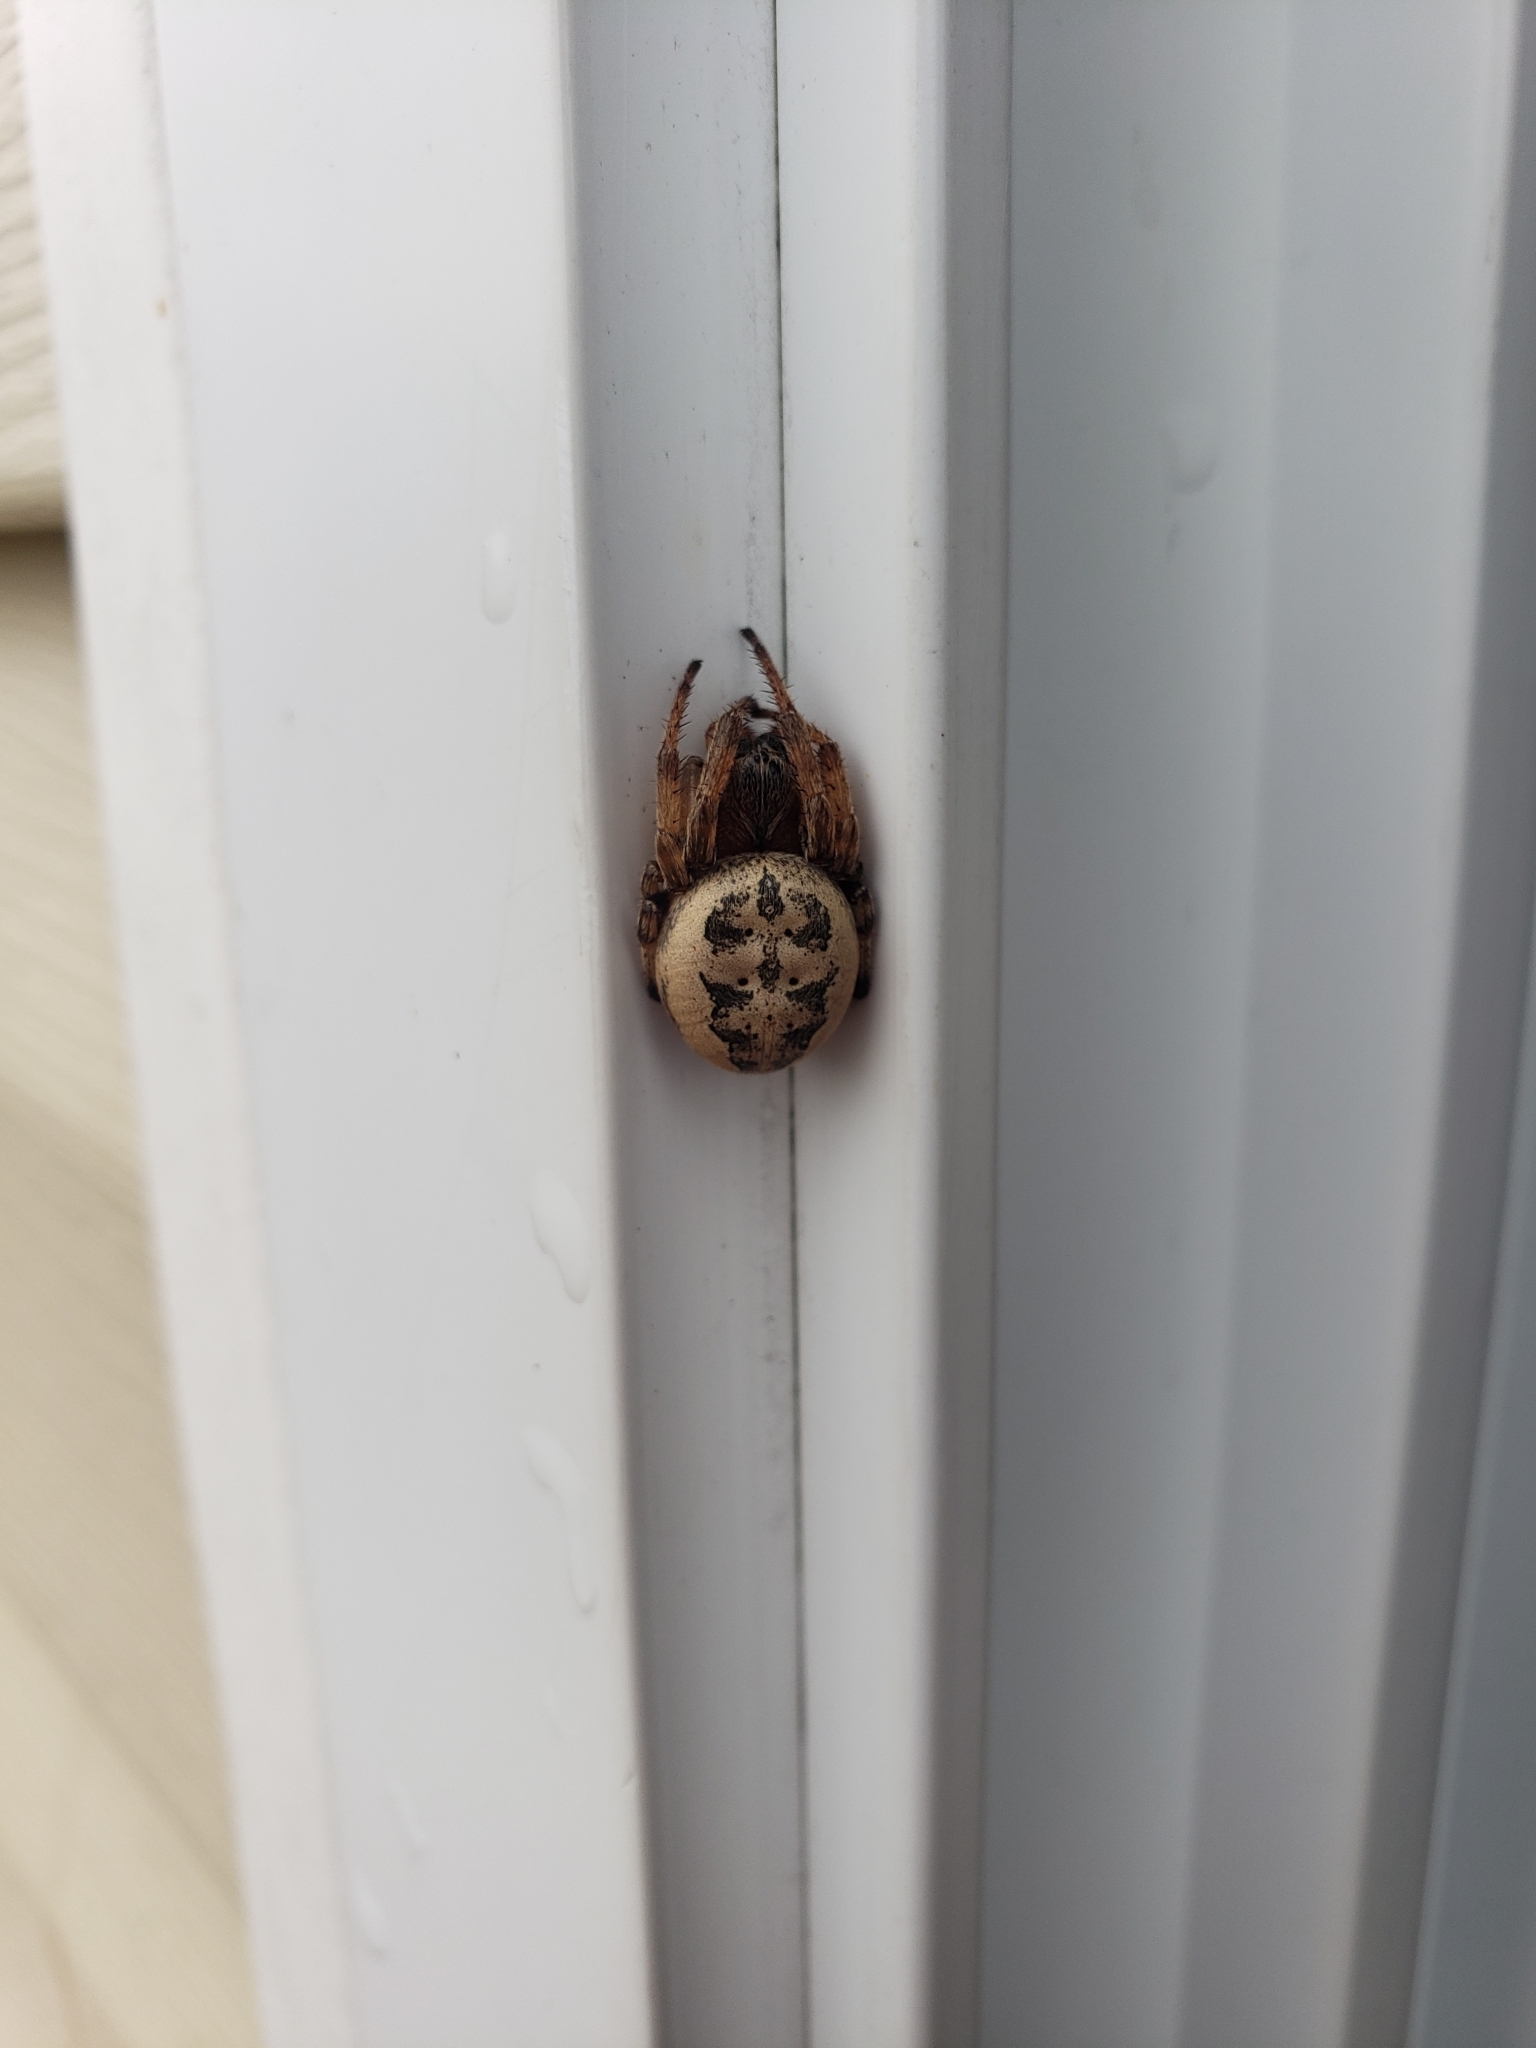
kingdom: Animalia
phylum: Arthropoda
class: Arachnida
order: Araneae
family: Araneidae
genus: Larinioides
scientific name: Larinioides cornutus
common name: Furrow orbweaver
